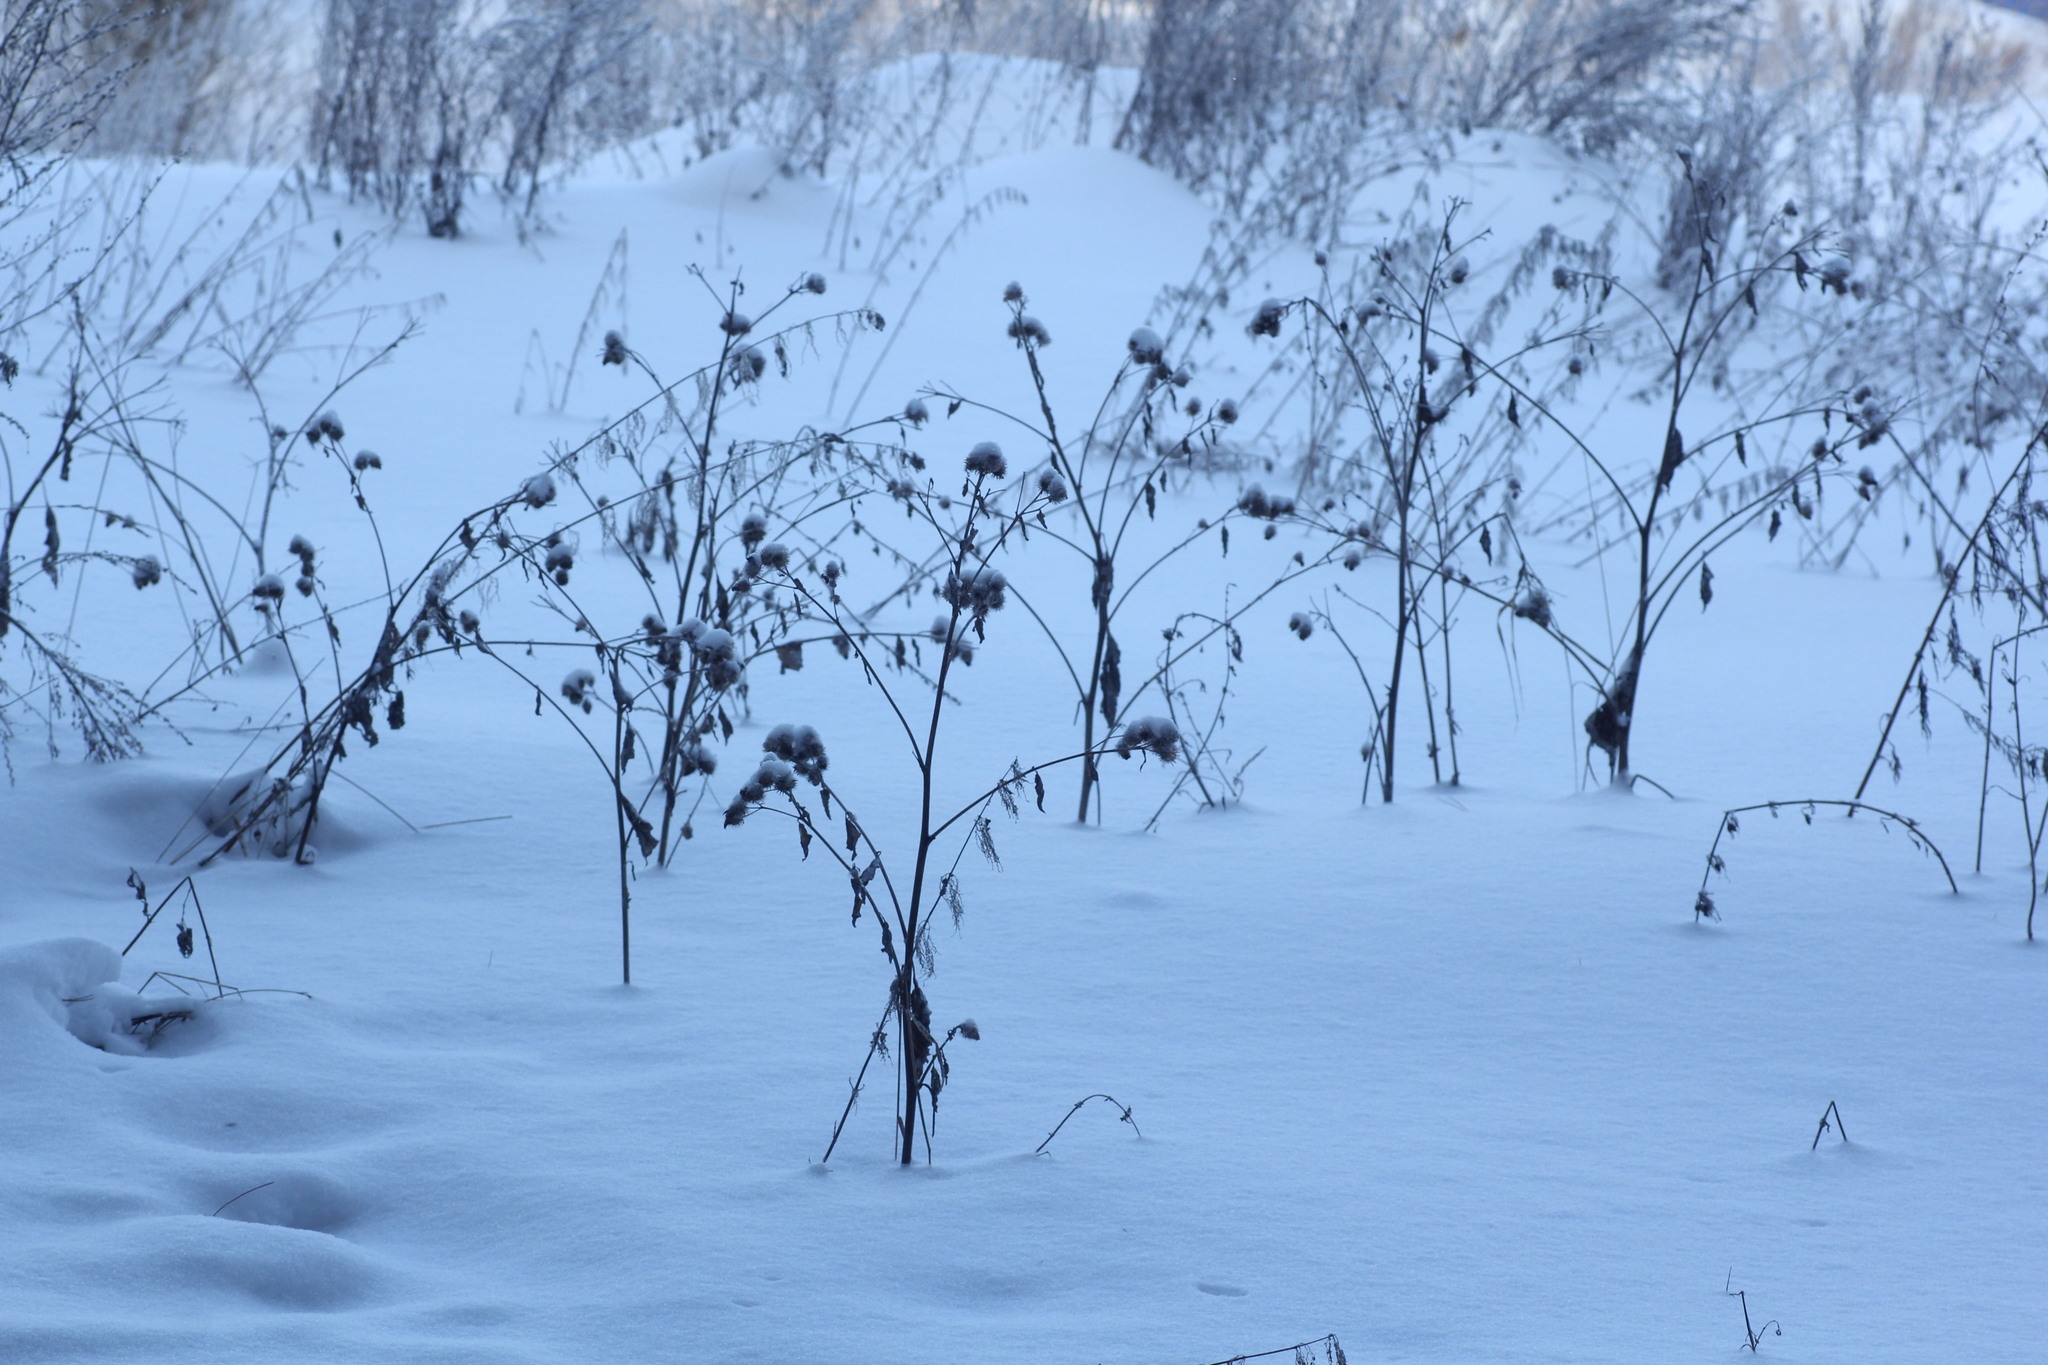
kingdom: Plantae
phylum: Tracheophyta
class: Magnoliopsida
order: Asterales
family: Asteraceae
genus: Arctium
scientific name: Arctium tomentosum
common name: Woolly burdock
